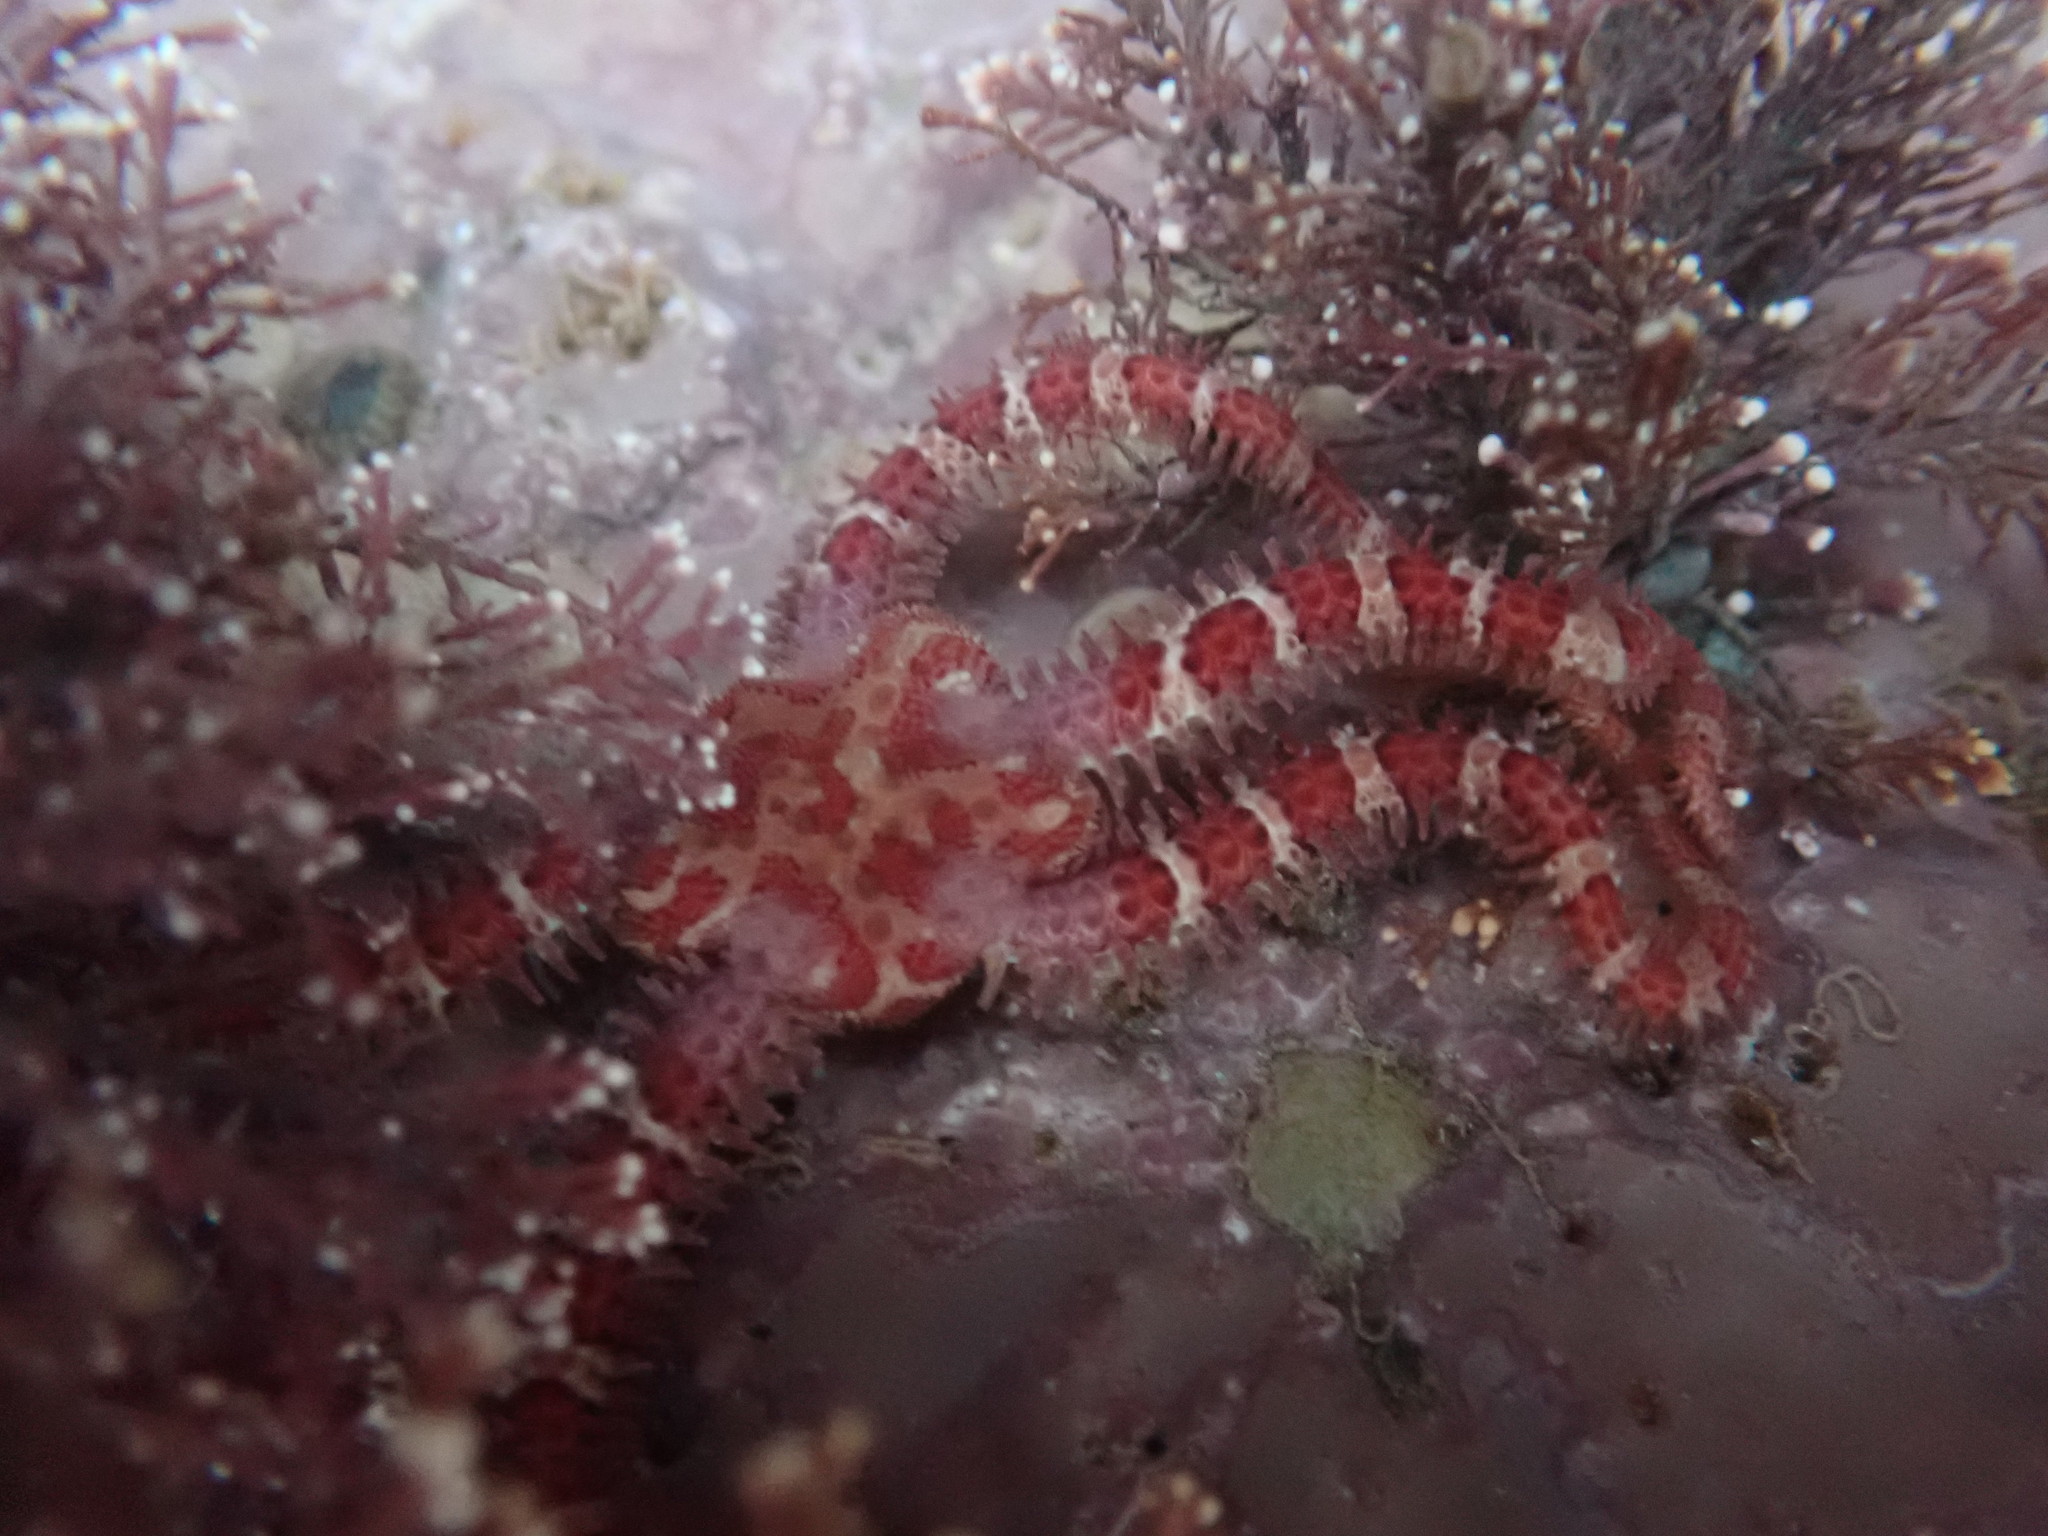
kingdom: Animalia
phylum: Echinodermata
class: Ophiuroidea
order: Amphilepidida
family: Ophiopholidae
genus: Ophiopholis
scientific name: Ophiopholis aculeata
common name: Crevice brittlestar
